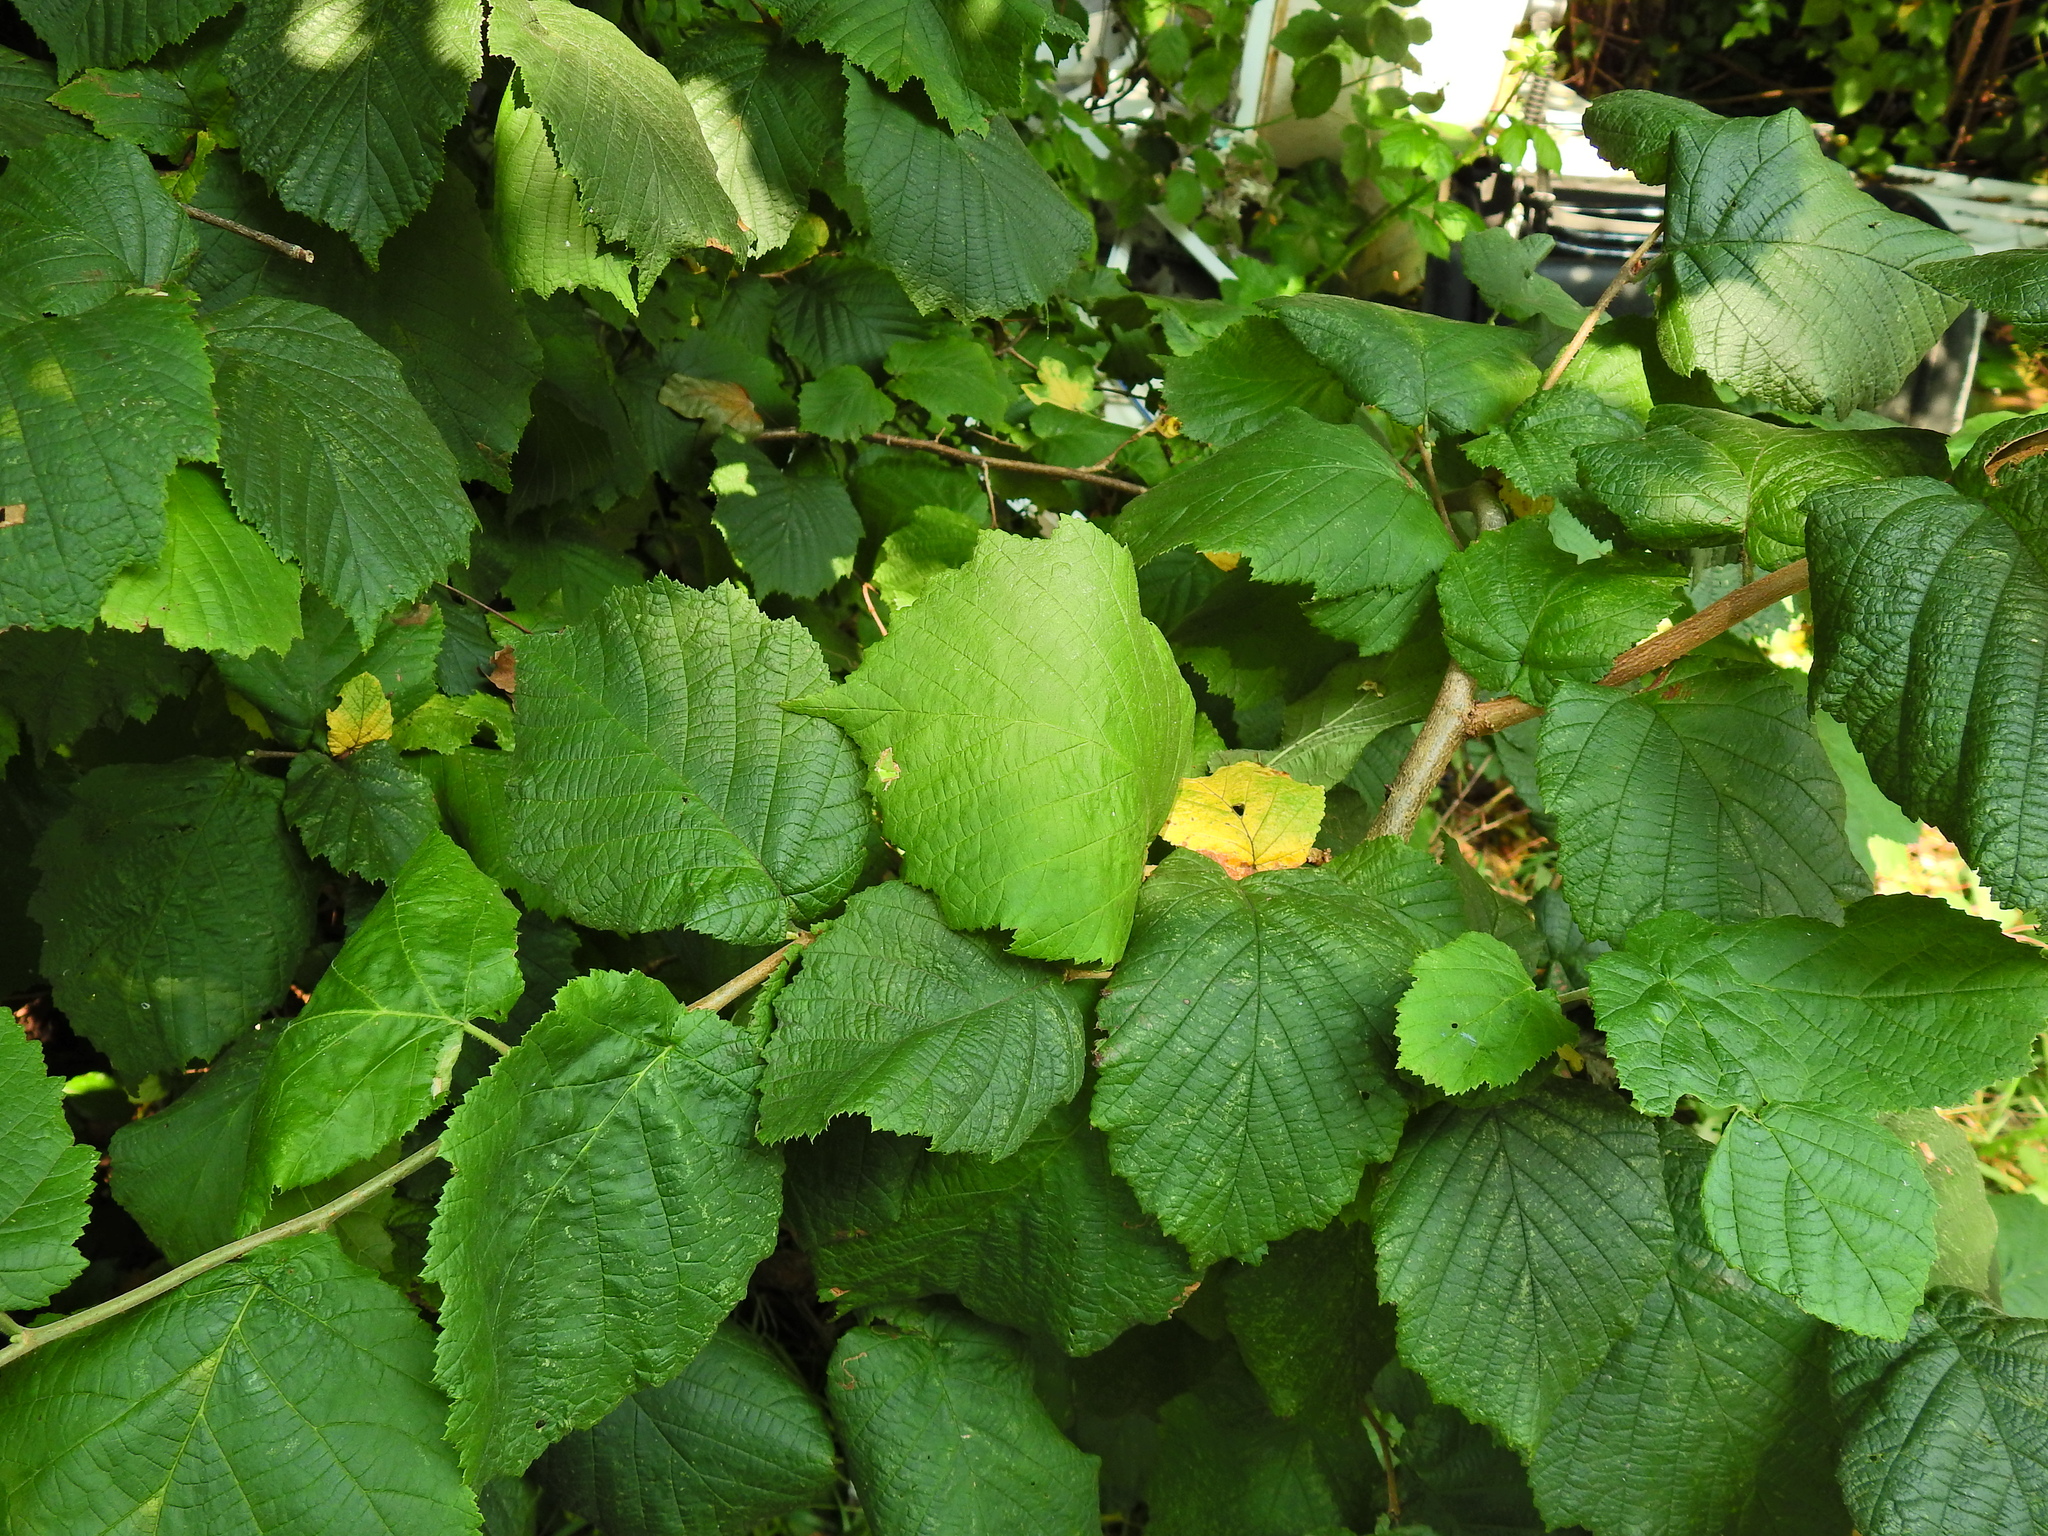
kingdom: Plantae
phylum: Tracheophyta
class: Magnoliopsida
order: Fagales
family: Betulaceae
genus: Corylus
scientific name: Corylus avellana
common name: European hazel
